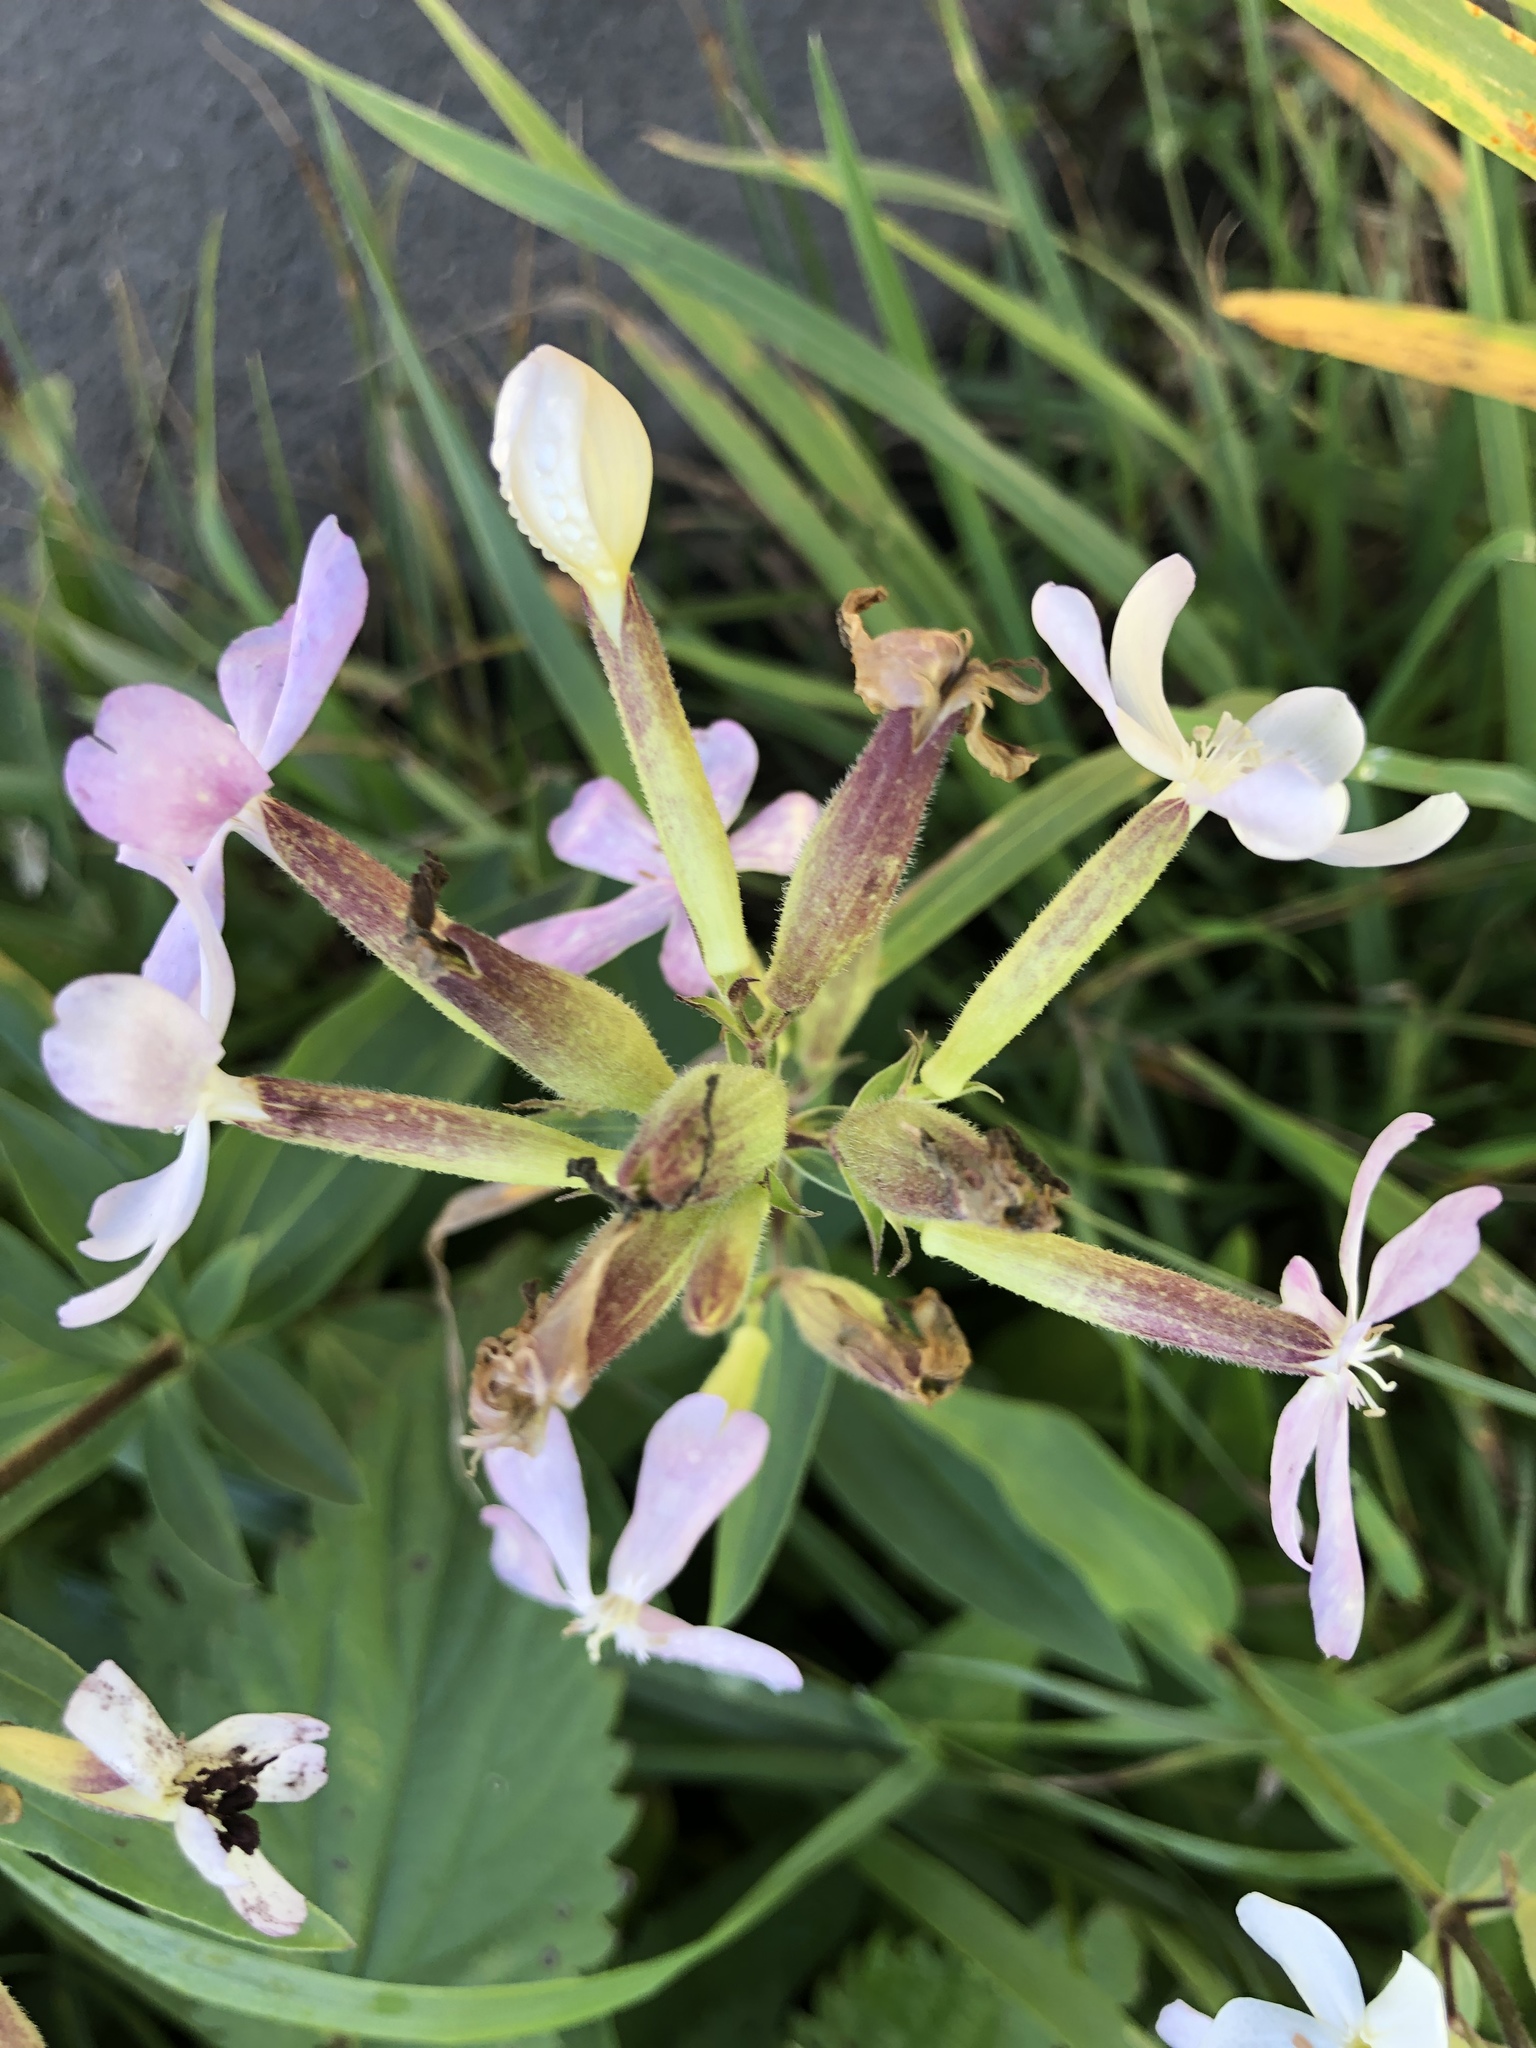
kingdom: Plantae
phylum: Tracheophyta
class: Magnoliopsida
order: Caryophyllales
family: Caryophyllaceae
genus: Saponaria
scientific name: Saponaria officinalis
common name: Soapwort
